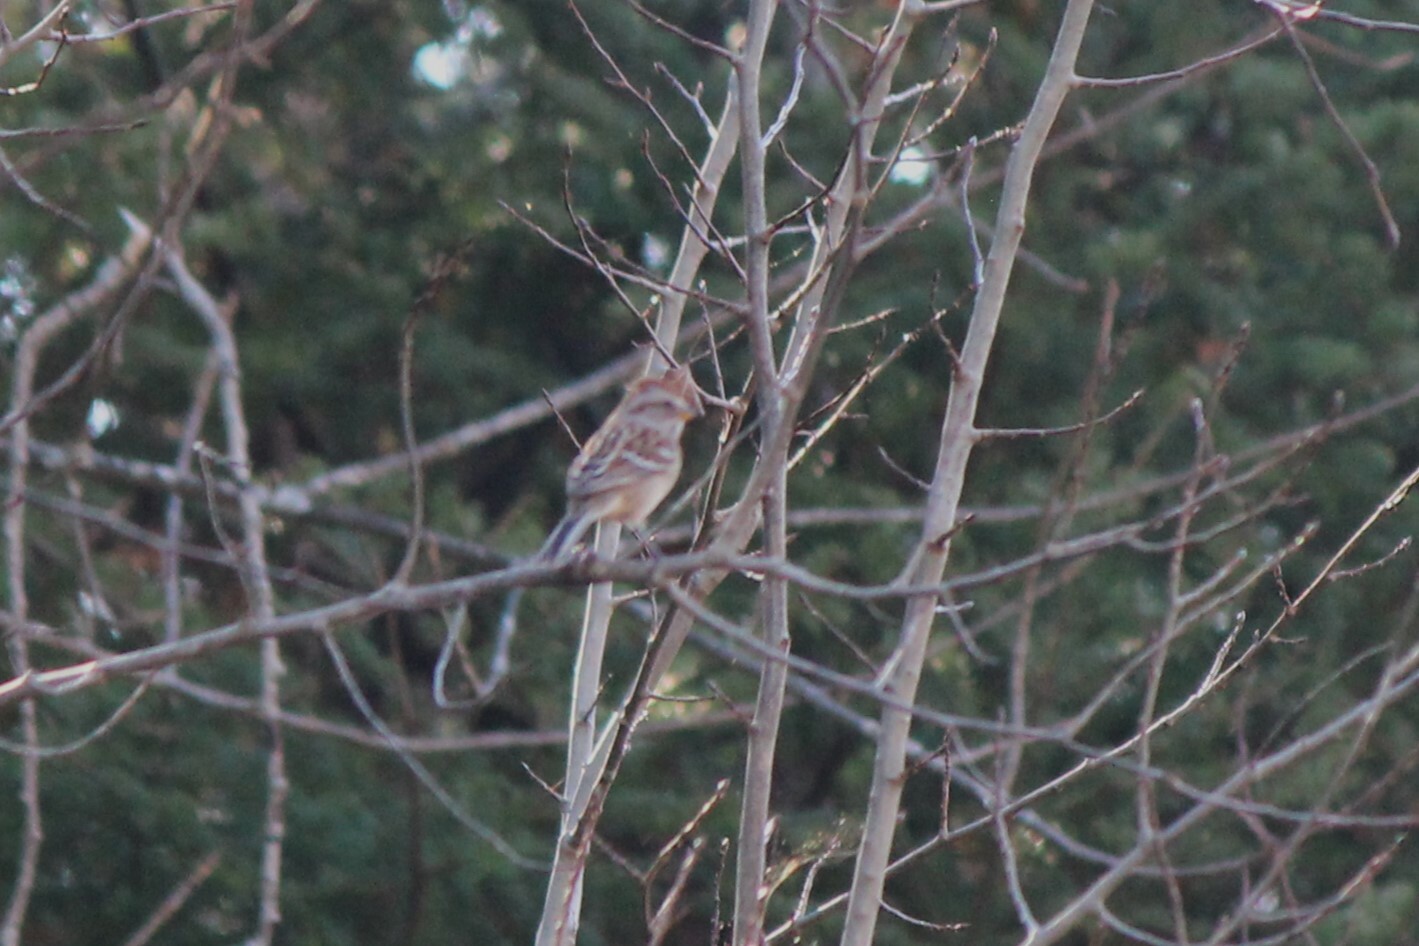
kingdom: Animalia
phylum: Chordata
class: Aves
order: Passeriformes
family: Passerellidae
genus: Spizelloides
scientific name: Spizelloides arborea
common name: American tree sparrow
